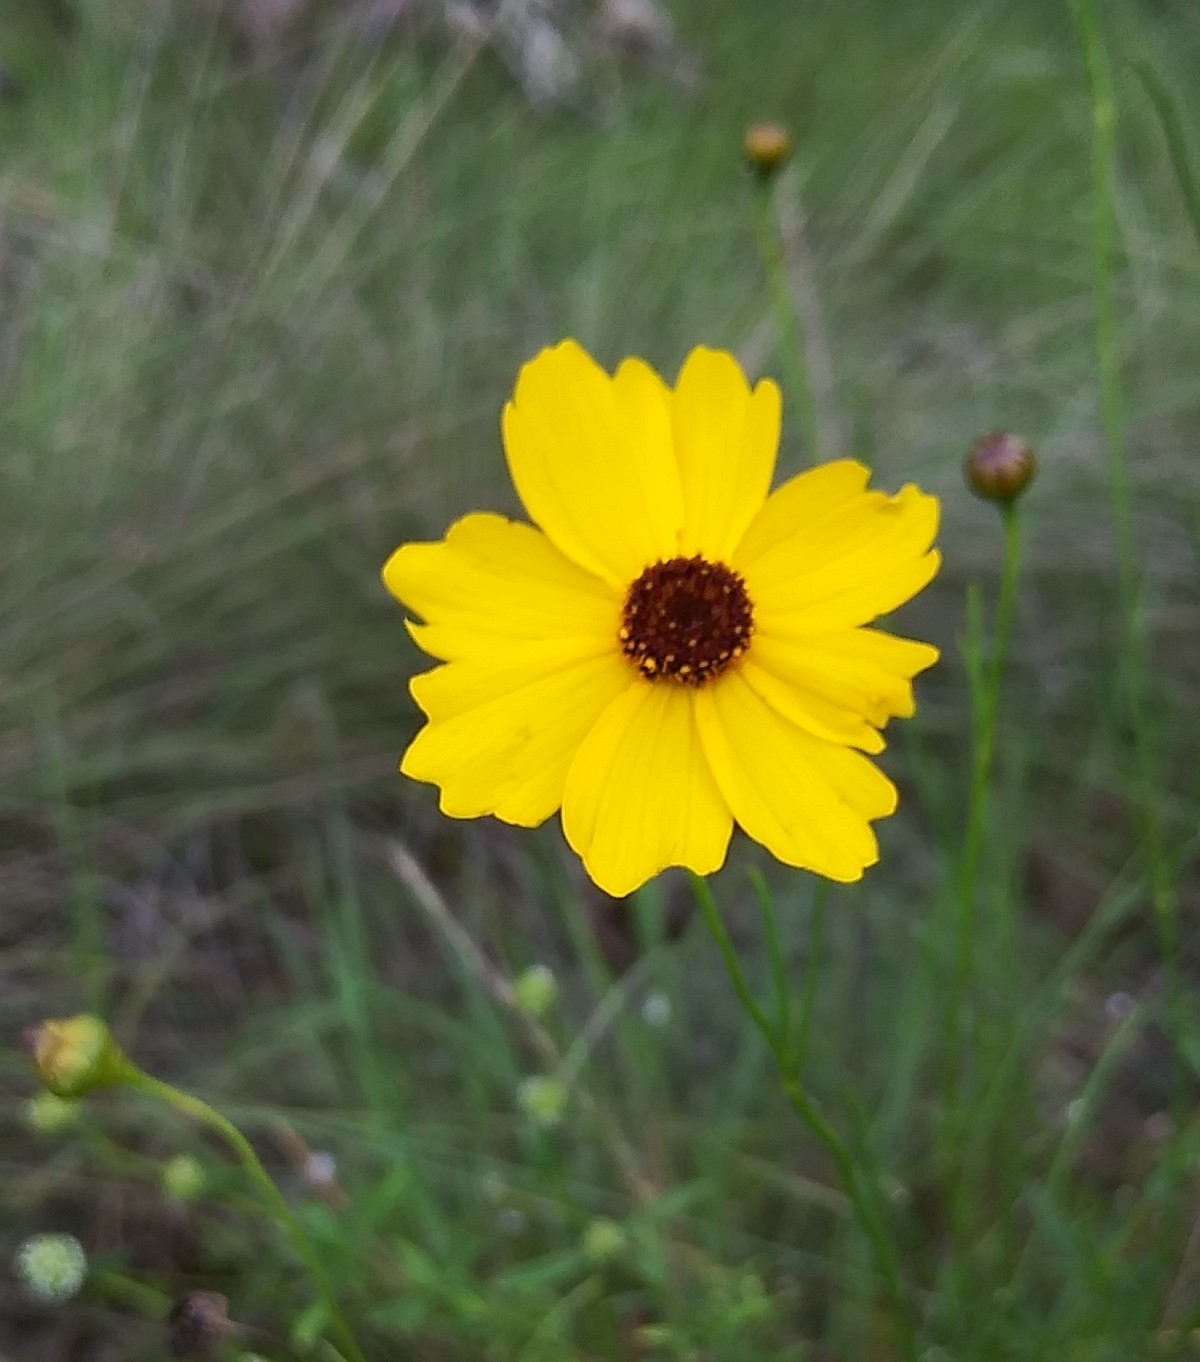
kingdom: Plantae
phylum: Tracheophyta
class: Magnoliopsida
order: Asterales
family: Asteraceae
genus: Coreopsis
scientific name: Coreopsis leavenworthii
